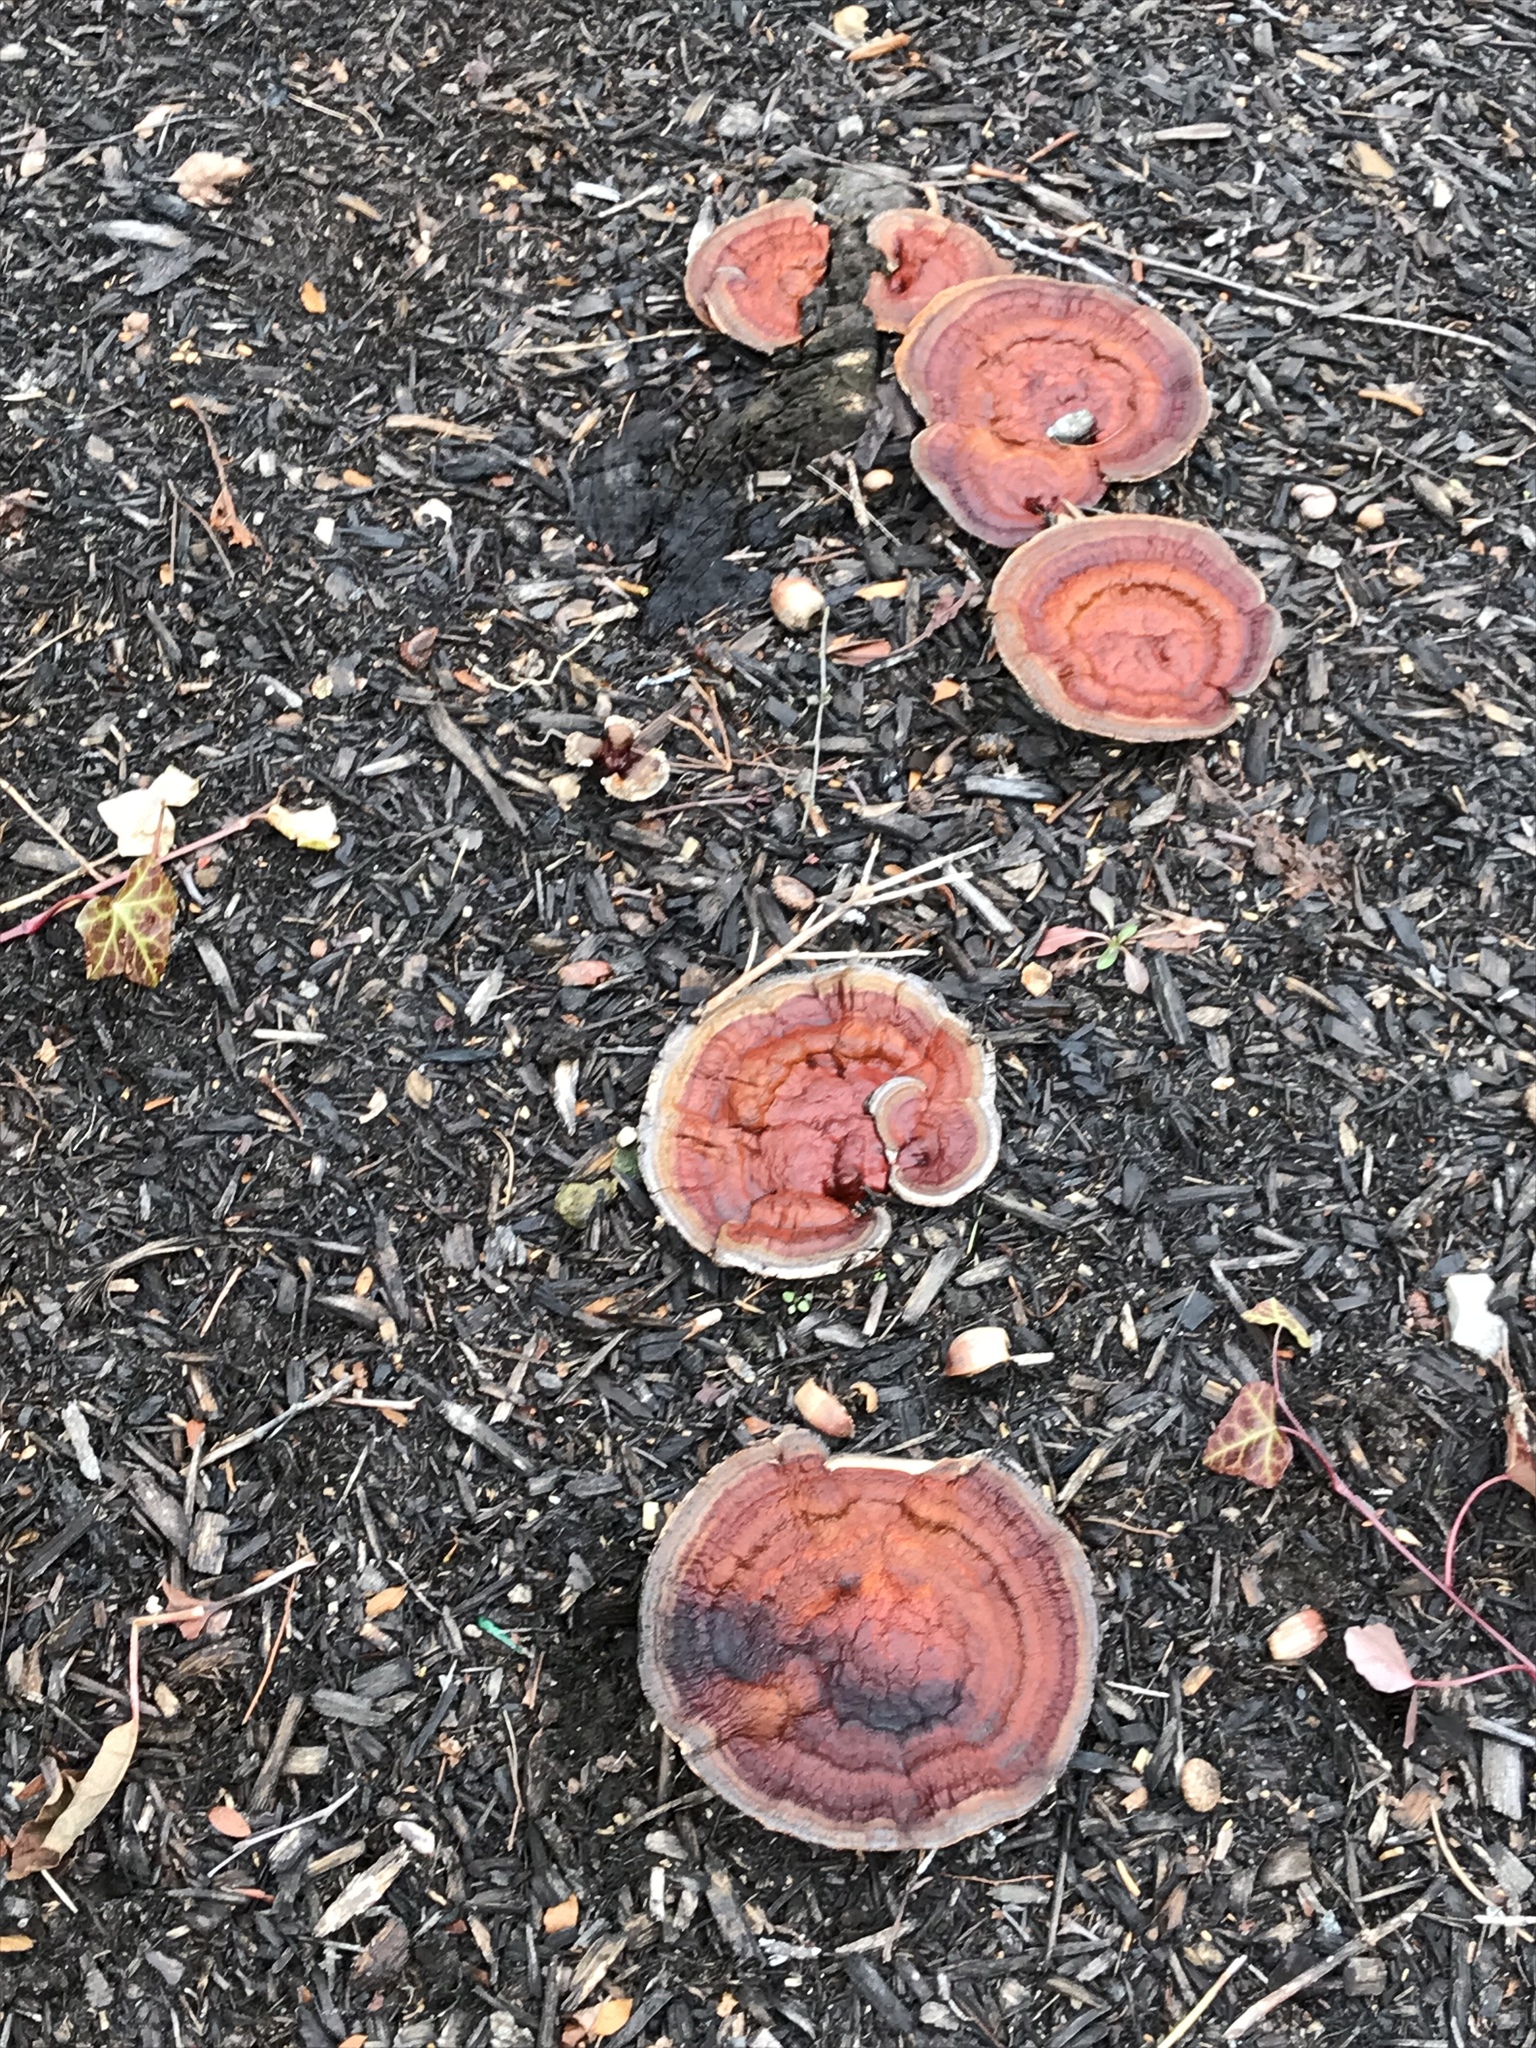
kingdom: Fungi
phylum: Basidiomycota
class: Agaricomycetes
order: Polyporales
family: Polyporaceae
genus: Ganoderma
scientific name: Ganoderma resinaceum
